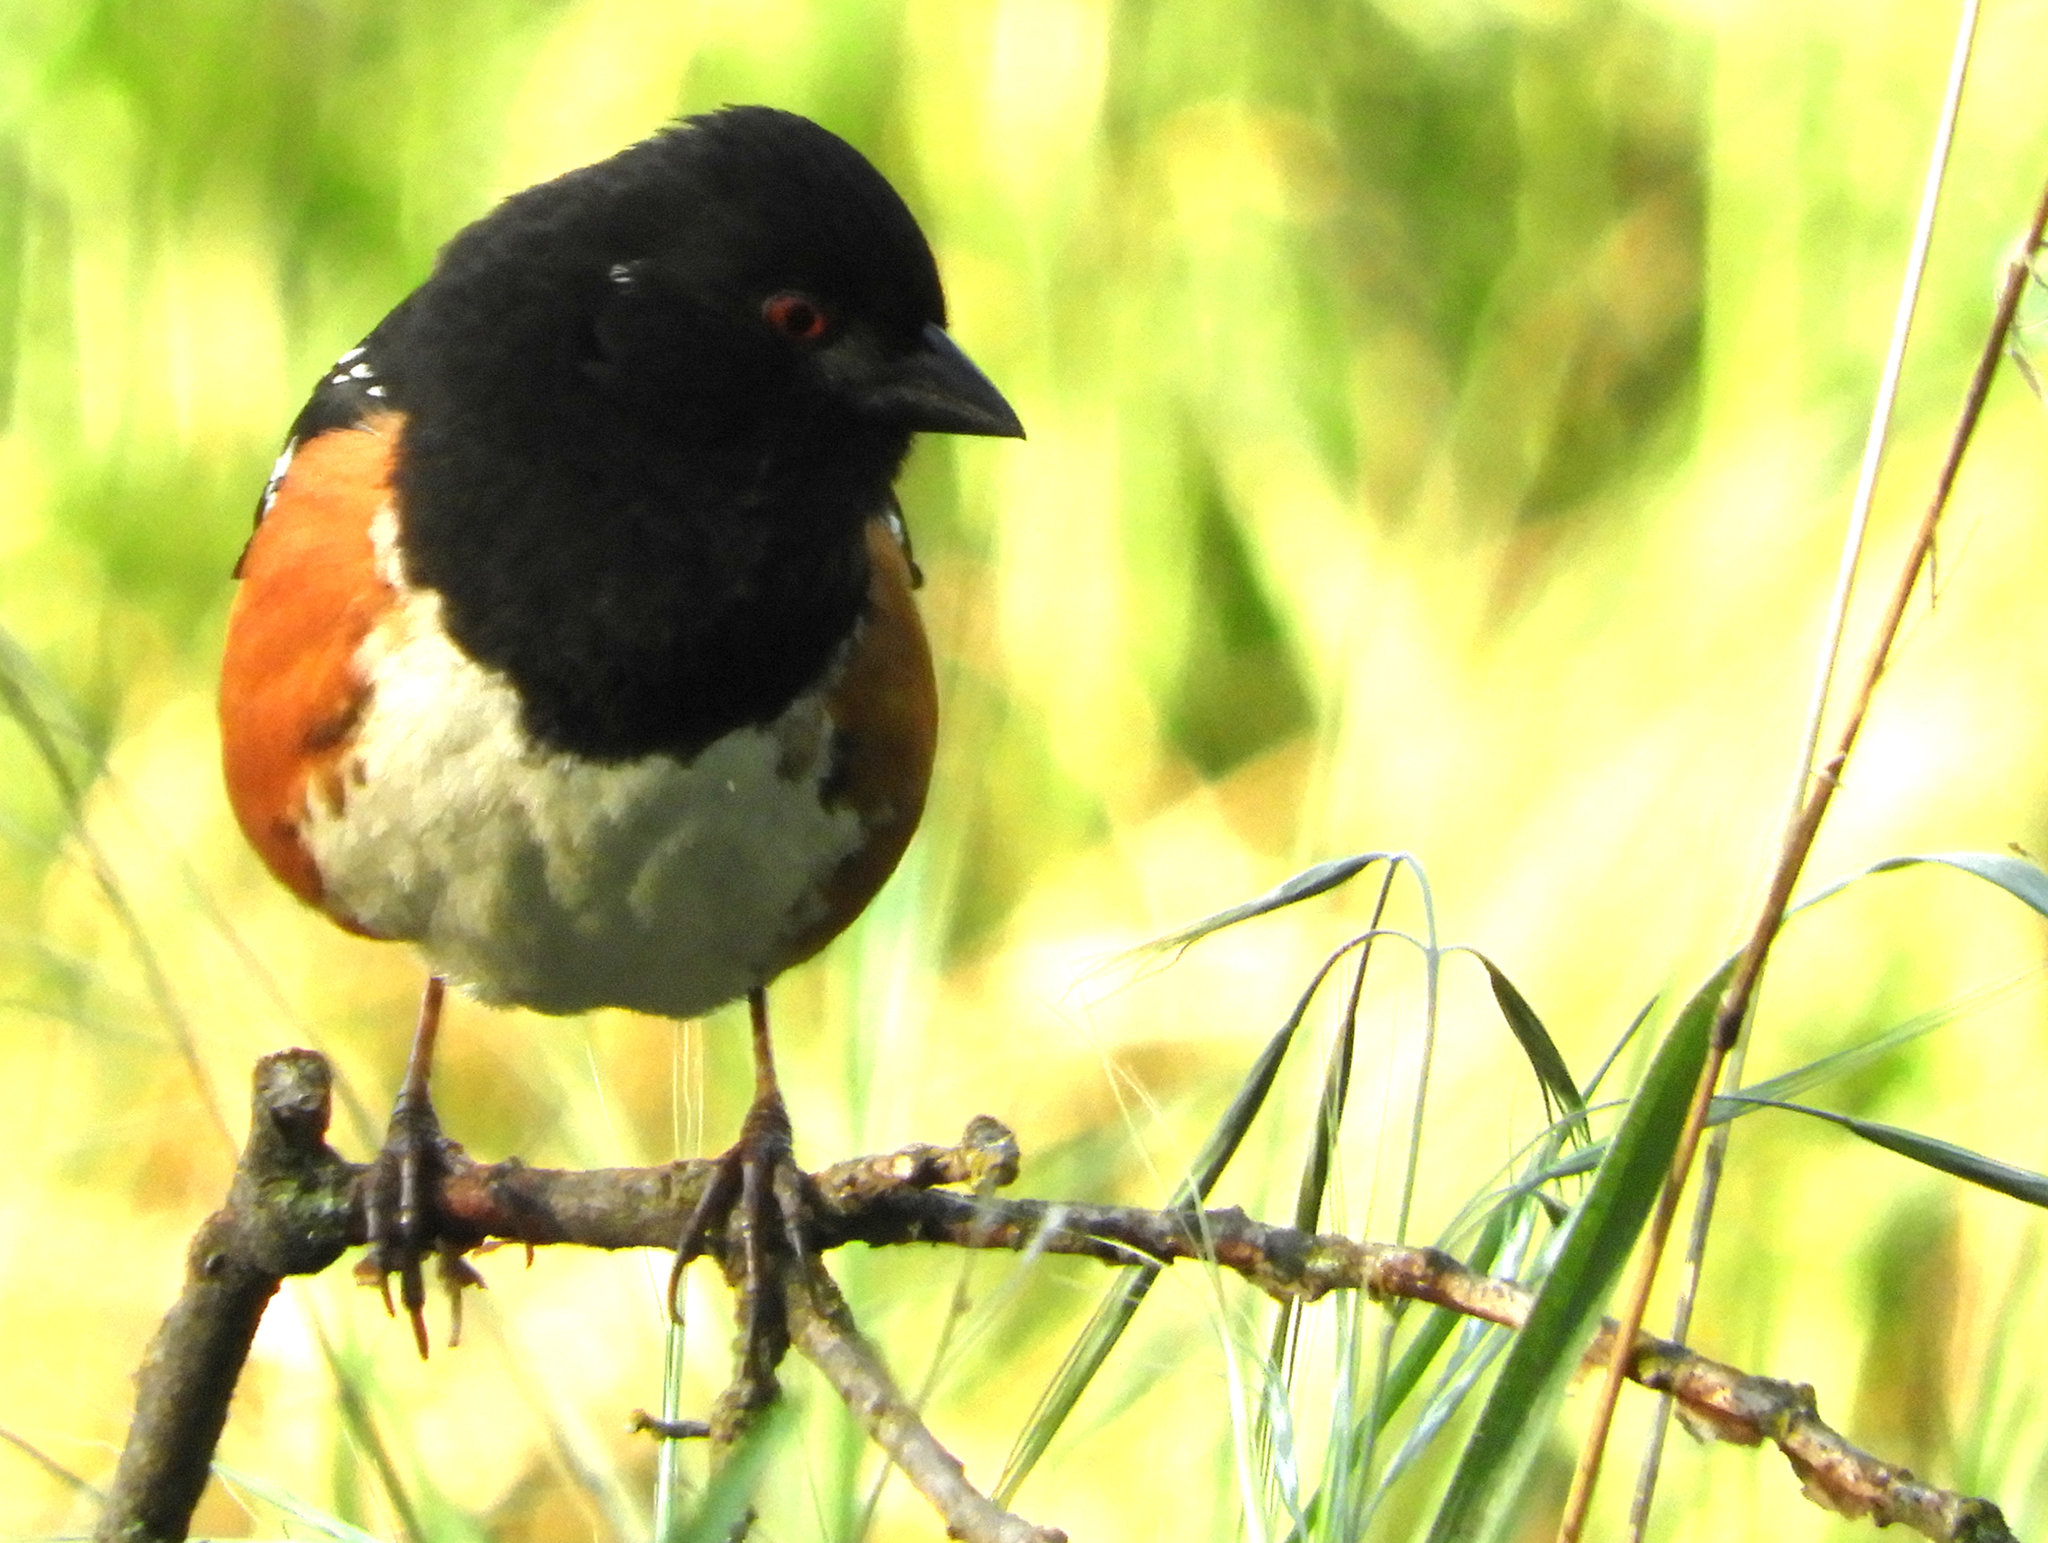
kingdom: Animalia
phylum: Chordata
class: Aves
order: Passeriformes
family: Passerellidae
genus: Pipilo
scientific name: Pipilo maculatus
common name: Spotted towhee
